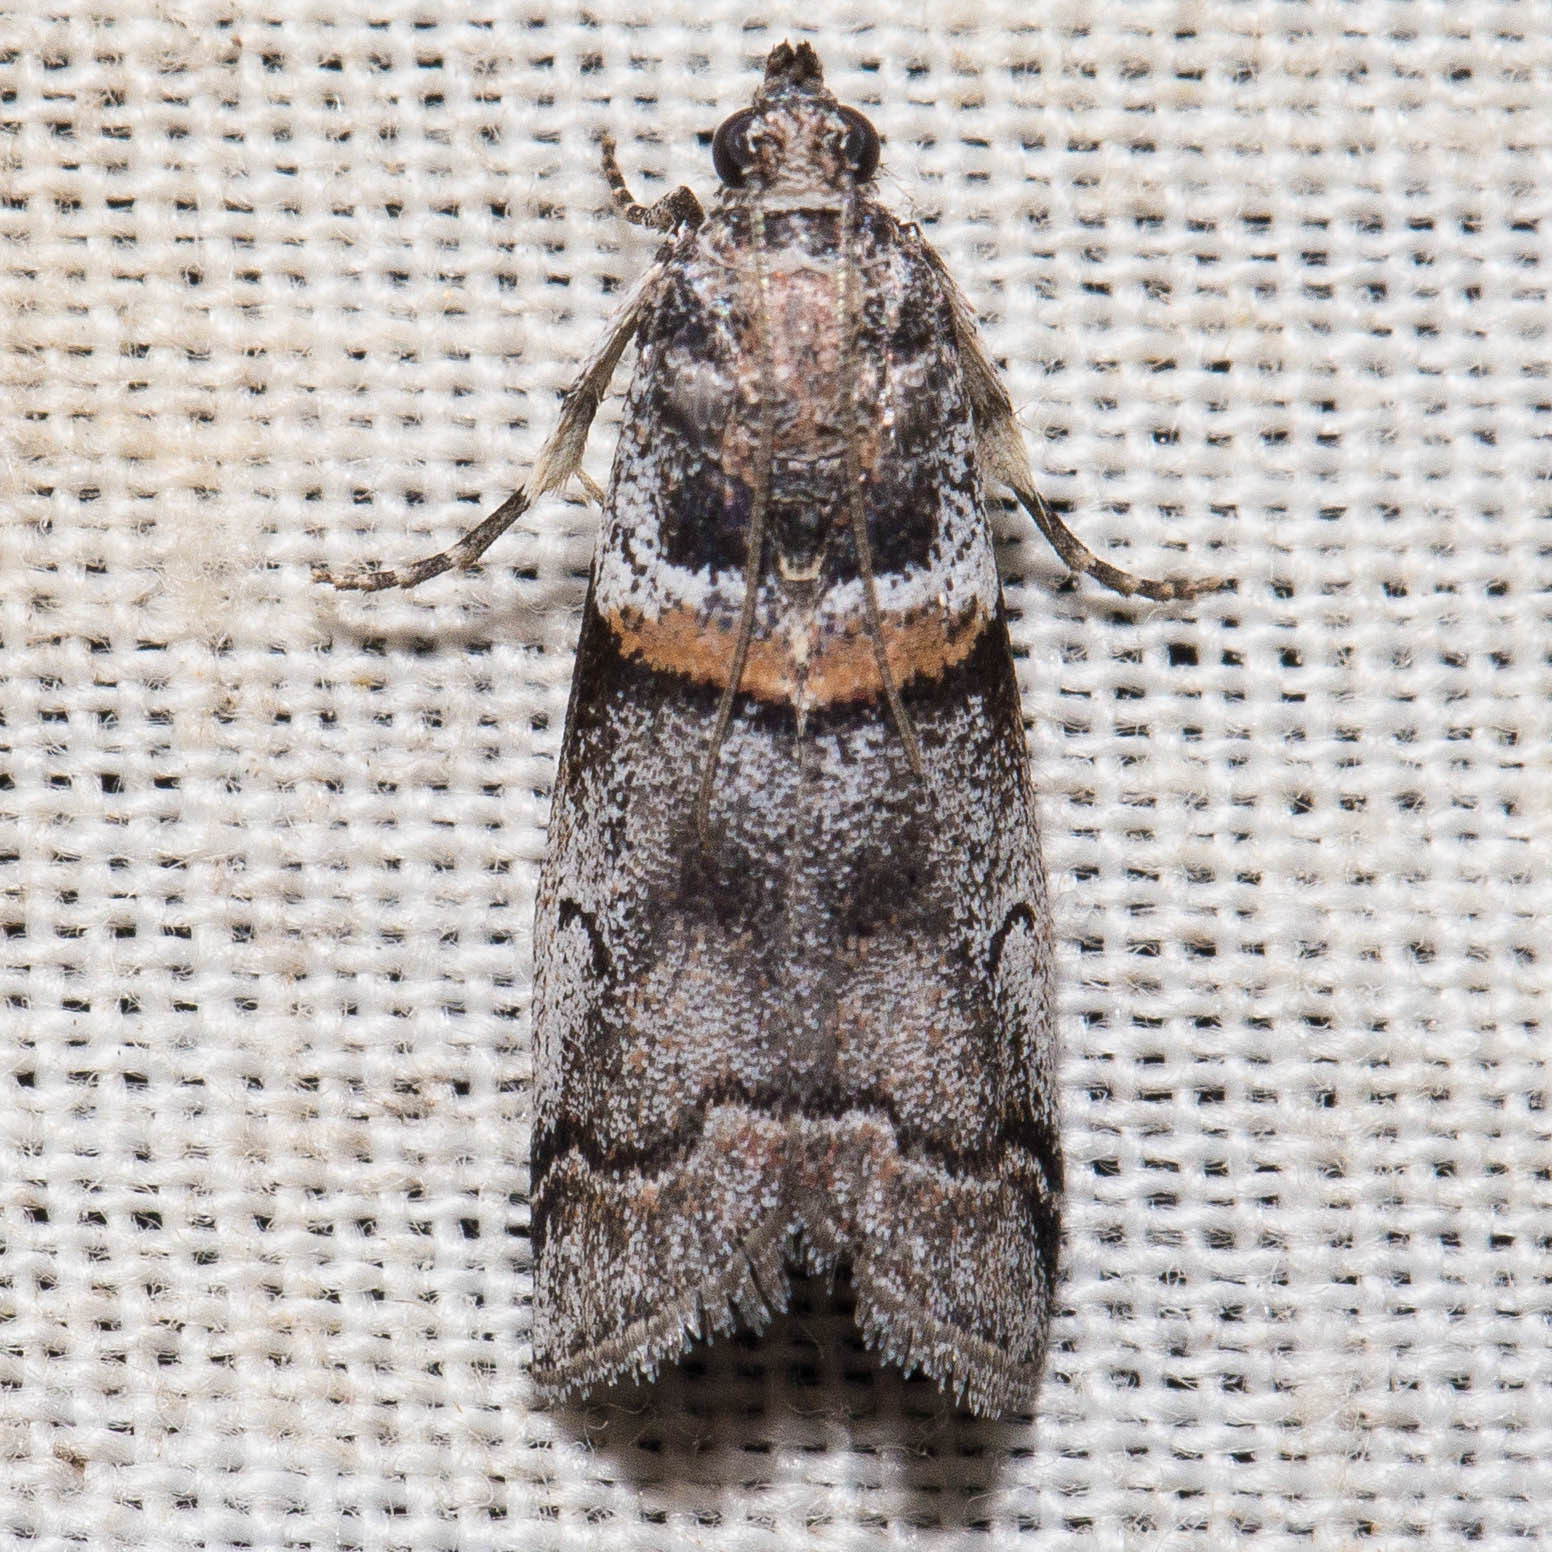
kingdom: Animalia
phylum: Arthropoda
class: Insecta
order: Lepidoptera
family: Pyralidae
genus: Acrobasis
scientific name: Acrobasis tricolorella
